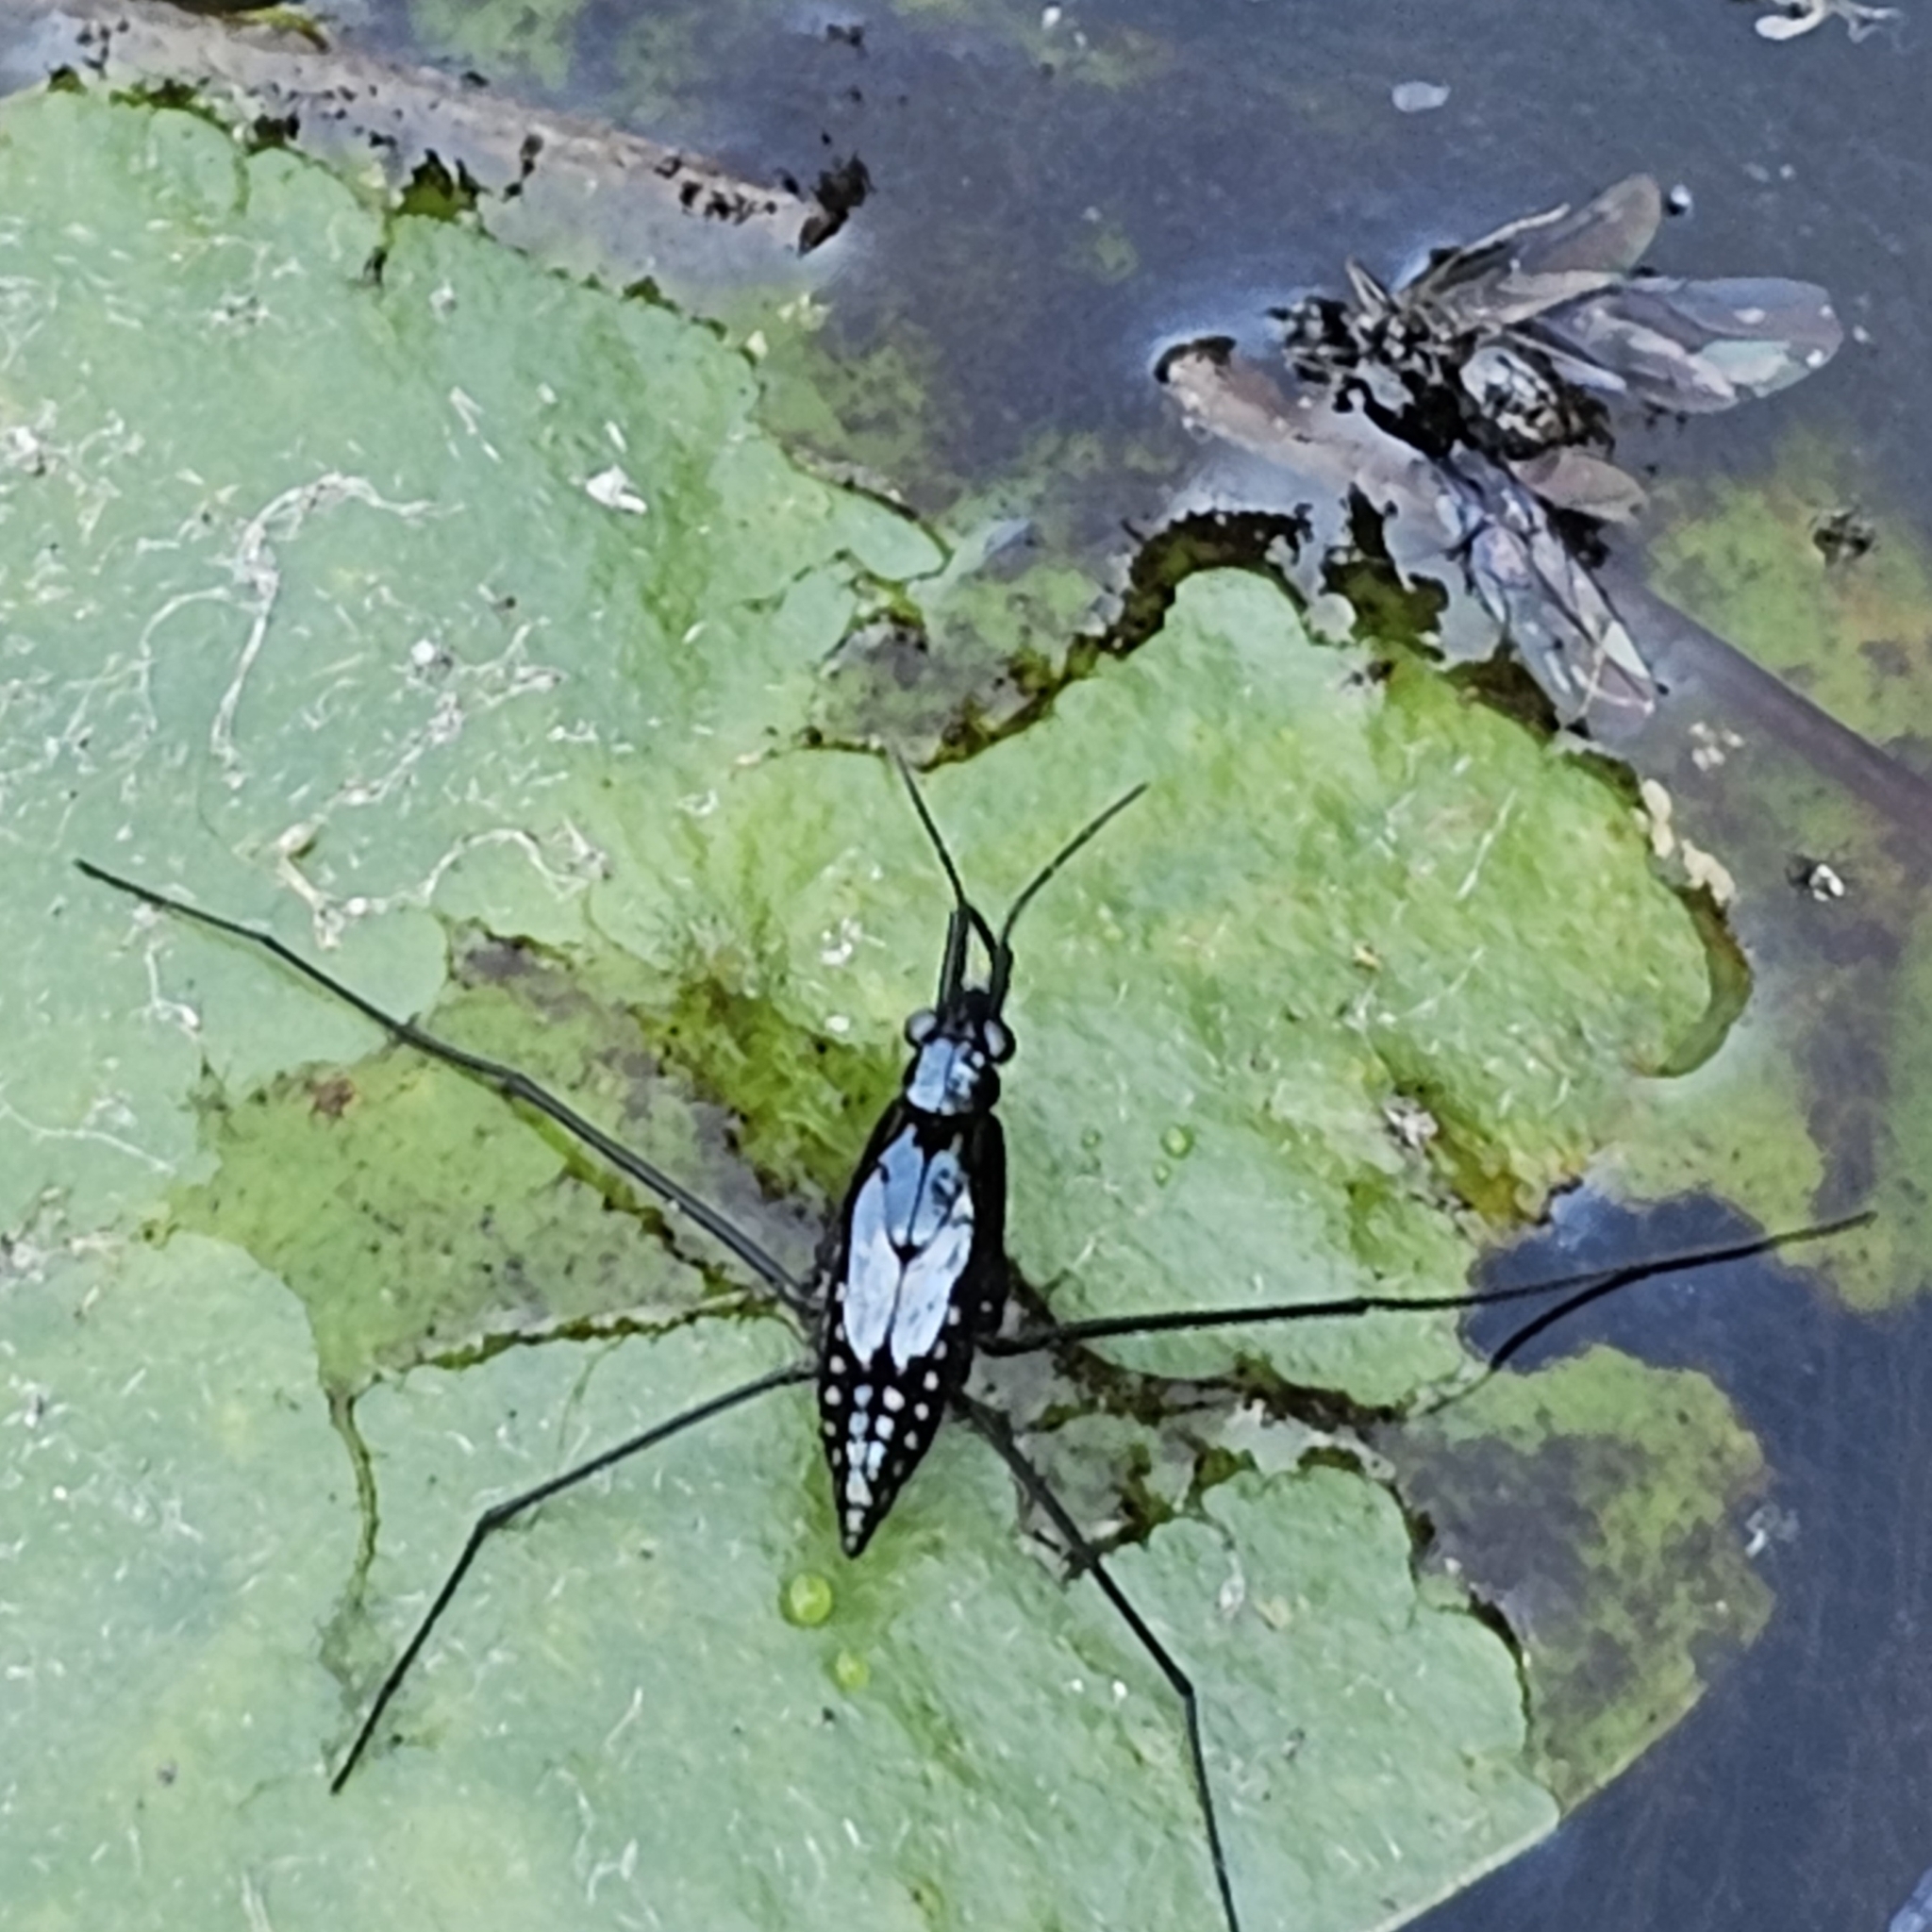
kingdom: Animalia
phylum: Arthropoda
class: Insecta
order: Hemiptera
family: Gerridae
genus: Gerris
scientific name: Gerris
